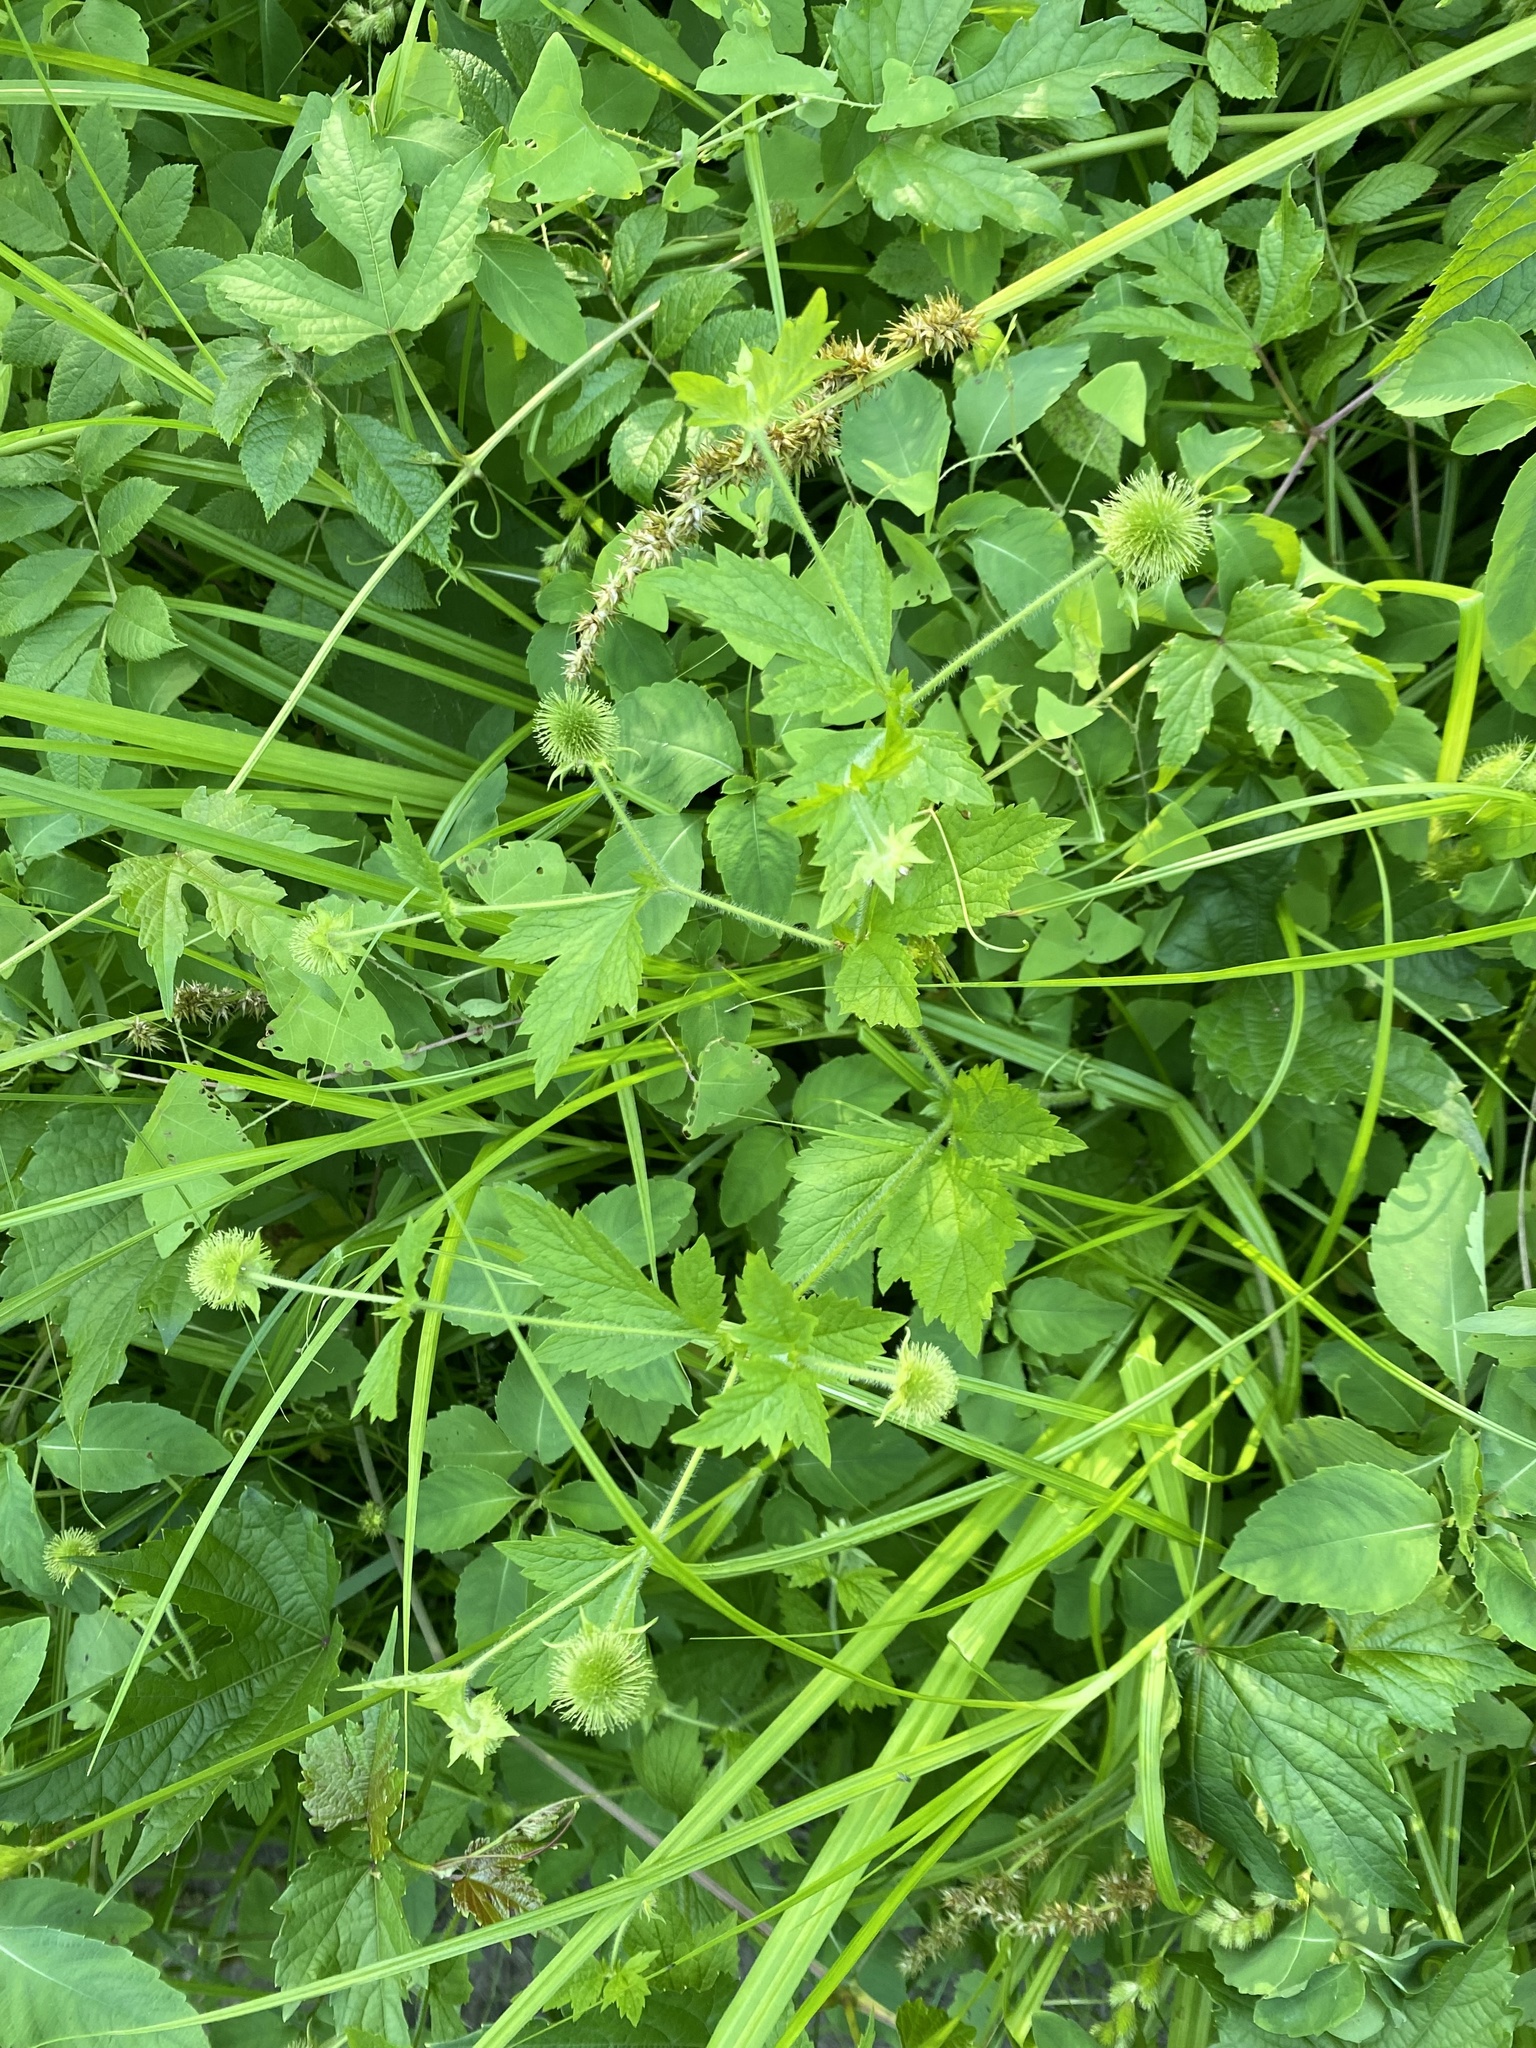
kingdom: Plantae
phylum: Tracheophyta
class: Liliopsida
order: Poales
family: Cyperaceae
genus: Carex
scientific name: Carex stipata
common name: Awl-fruited sedge
